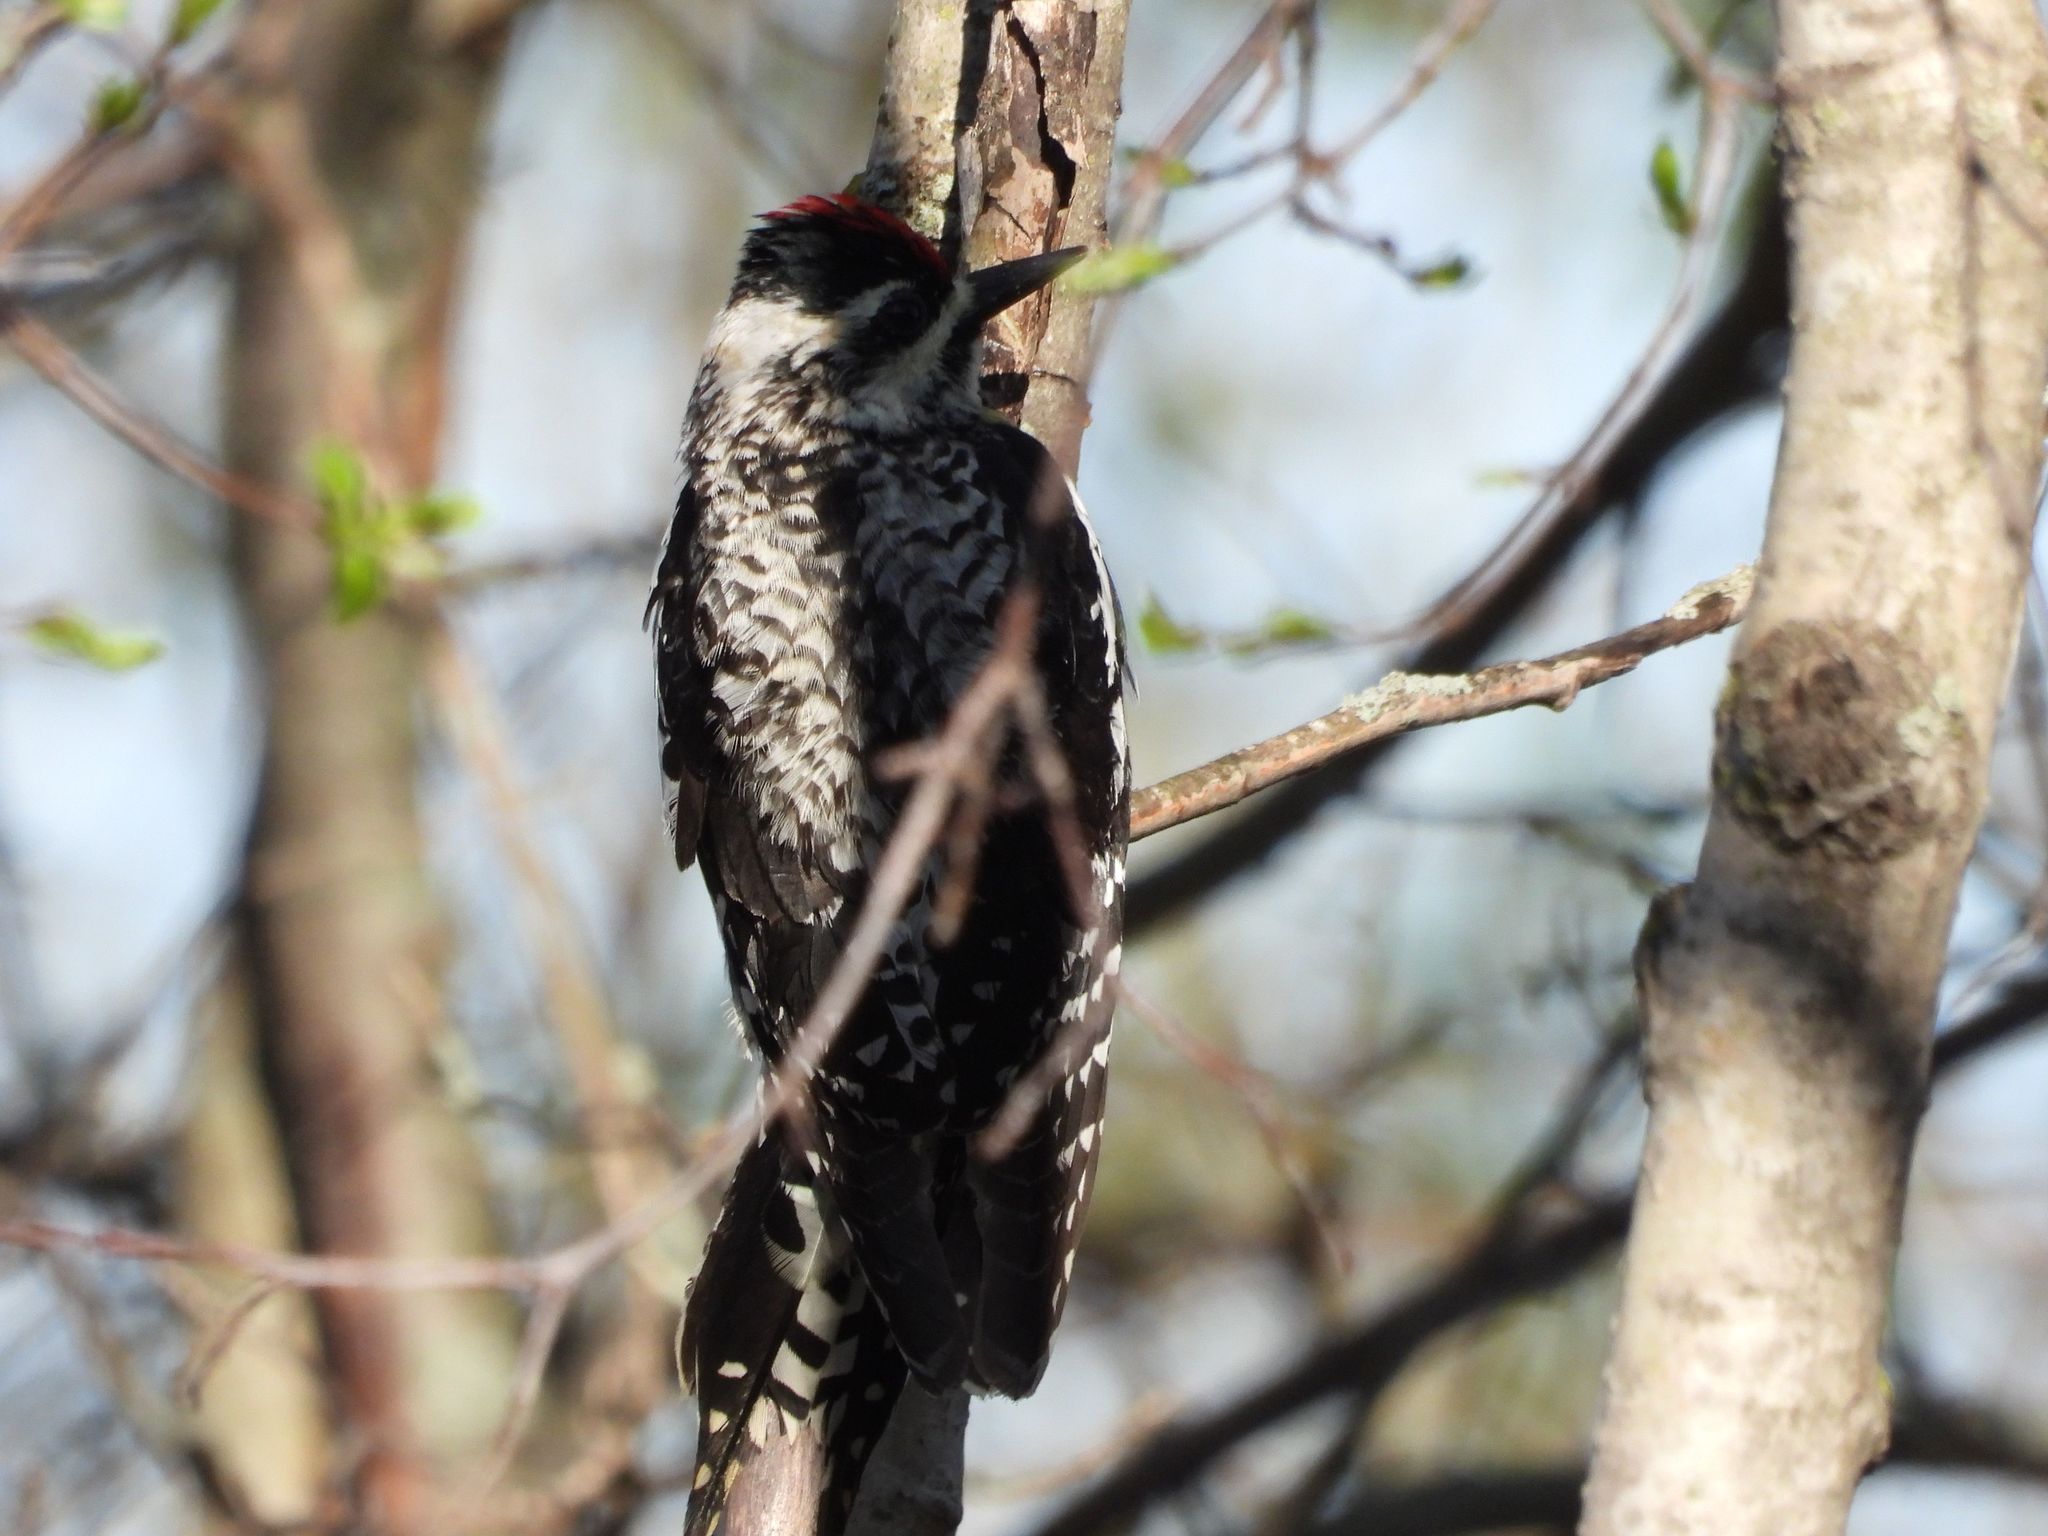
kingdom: Animalia
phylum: Chordata
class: Aves
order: Piciformes
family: Picidae
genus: Sphyrapicus
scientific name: Sphyrapicus varius
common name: Yellow-bellied sapsucker
